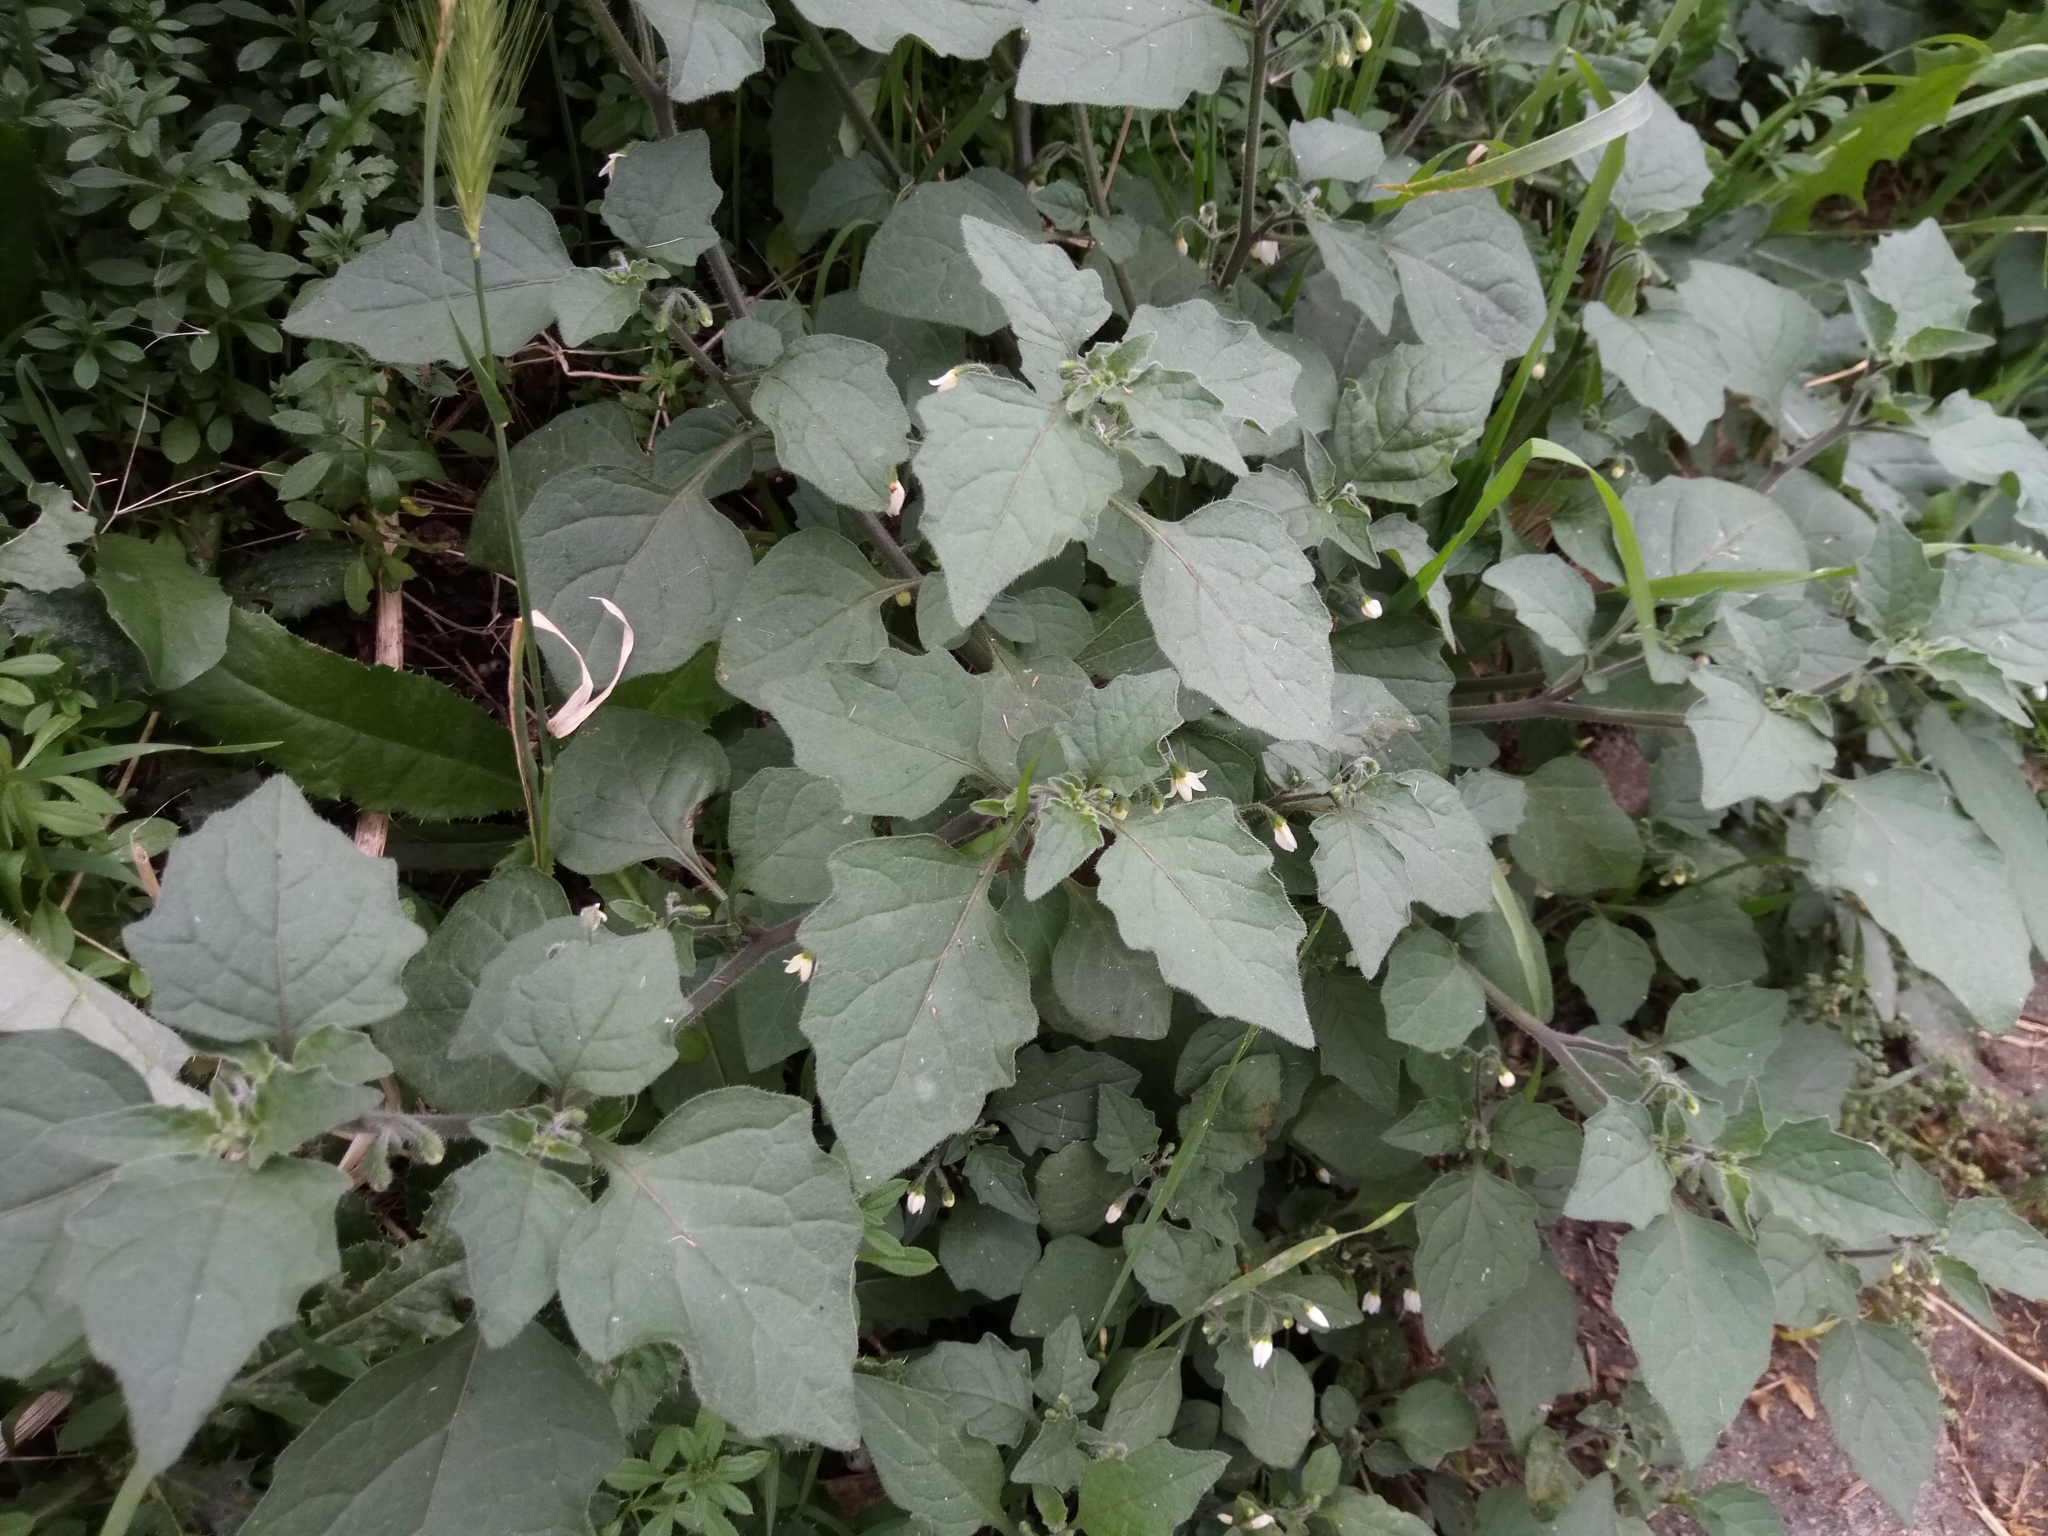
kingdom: Plantae
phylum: Tracheophyta
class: Magnoliopsida
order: Solanales
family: Solanaceae
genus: Solanum
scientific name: Solanum decipiens
